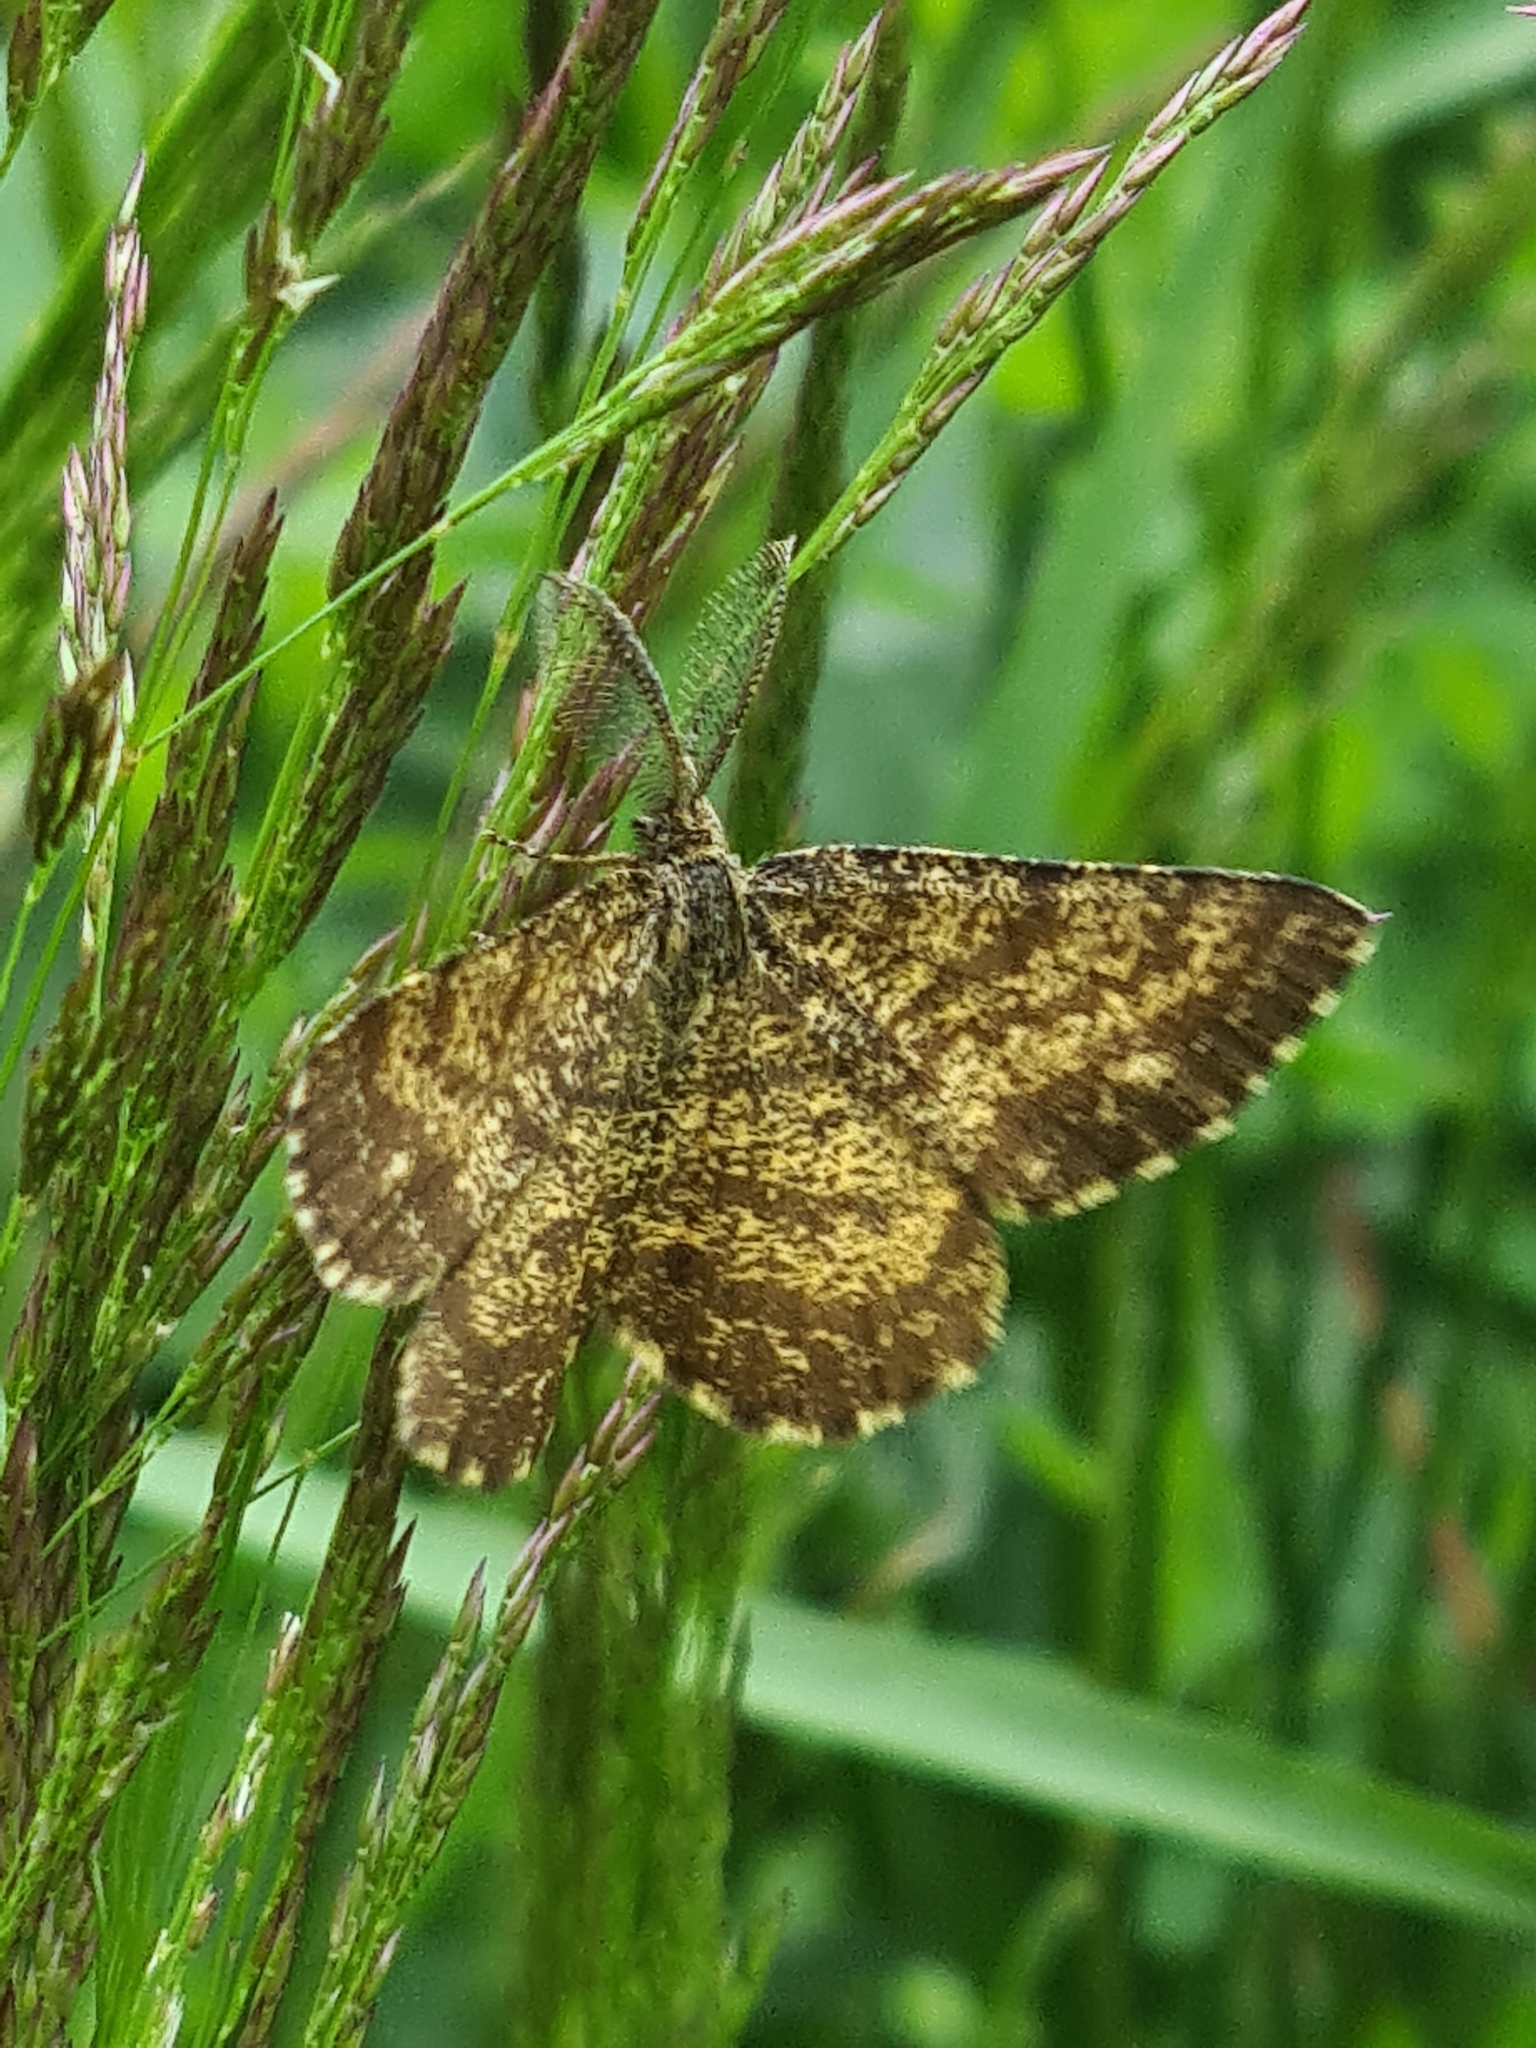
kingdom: Animalia
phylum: Arthropoda
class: Insecta
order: Lepidoptera
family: Geometridae
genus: Ematurga
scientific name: Ematurga atomaria
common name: Common heath
